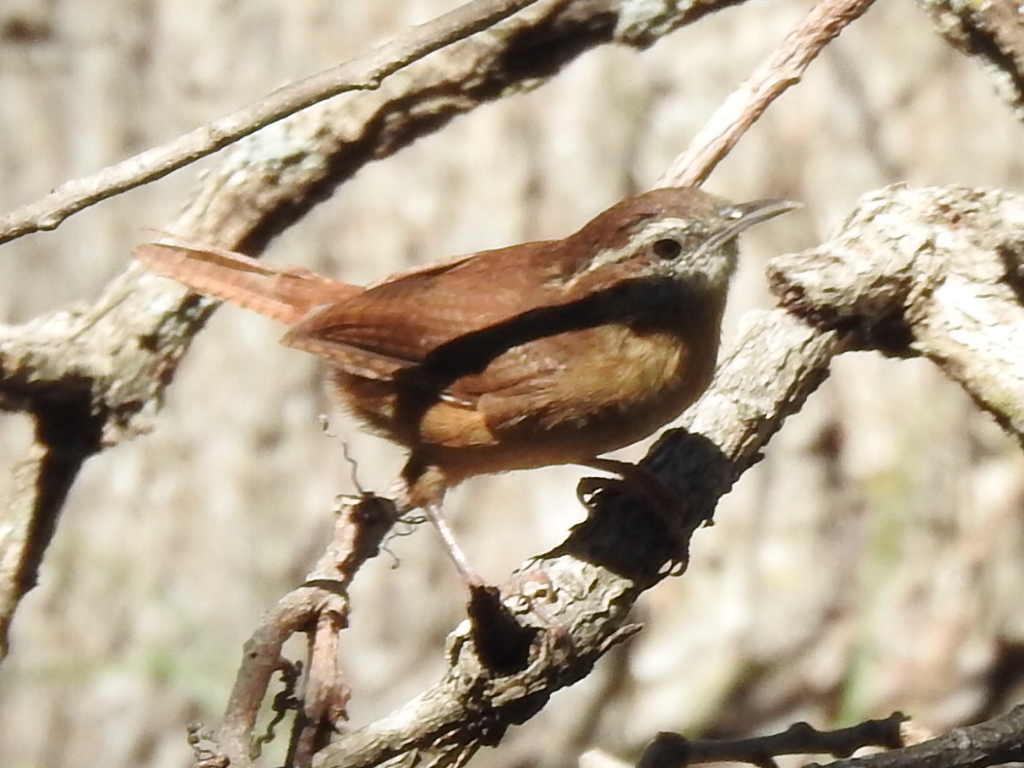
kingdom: Animalia
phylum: Chordata
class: Aves
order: Passeriformes
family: Troglodytidae
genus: Thryothorus
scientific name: Thryothorus ludovicianus
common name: Carolina wren
